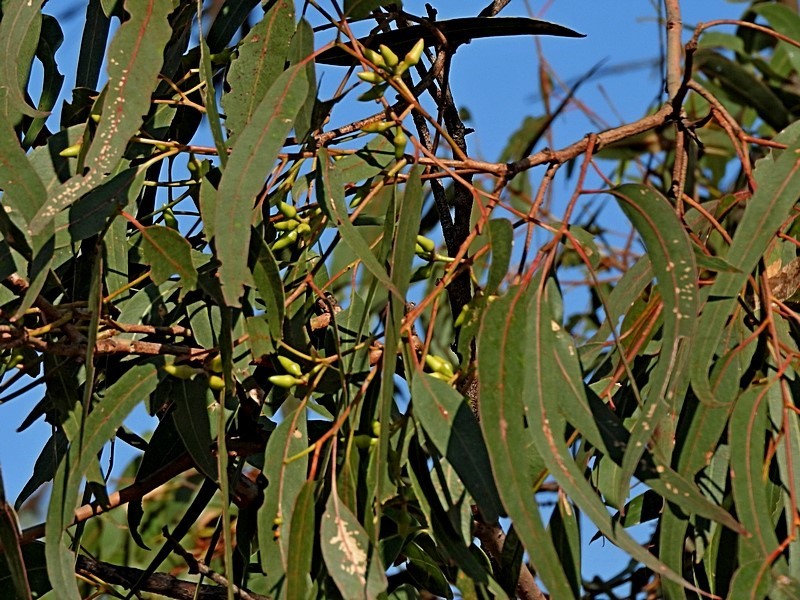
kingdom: Plantae
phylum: Tracheophyta
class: Magnoliopsida
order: Myrtales
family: Myrtaceae
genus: Eucalyptus
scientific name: Eucalyptus tereticornis
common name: Forest redgum
